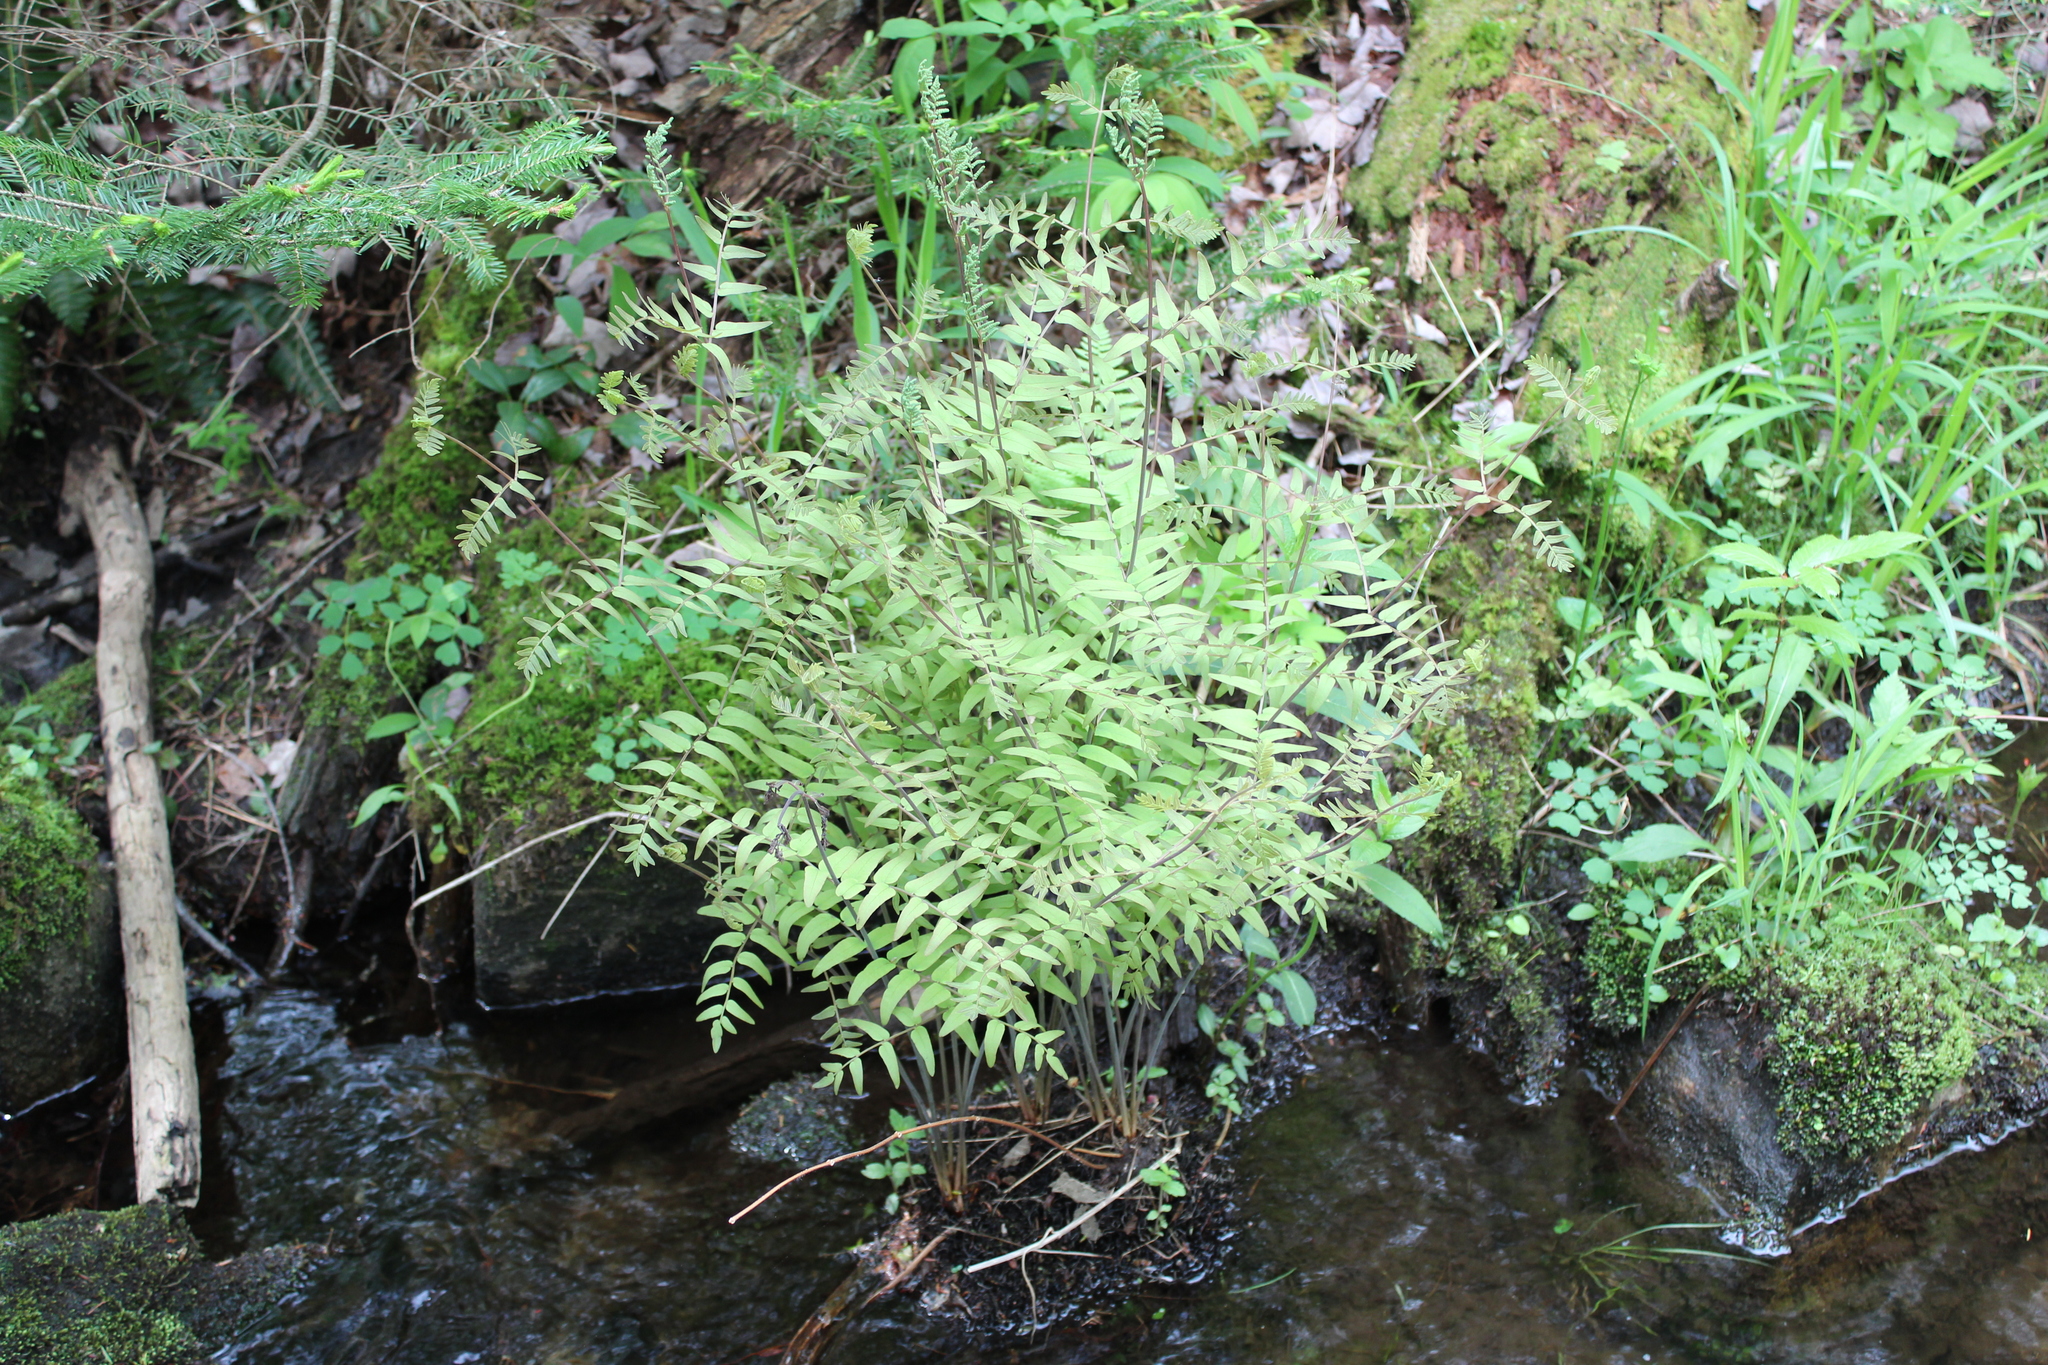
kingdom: Plantae
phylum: Tracheophyta
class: Polypodiopsida
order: Osmundales
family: Osmundaceae
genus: Osmunda
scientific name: Osmunda spectabilis
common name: American royal fern
